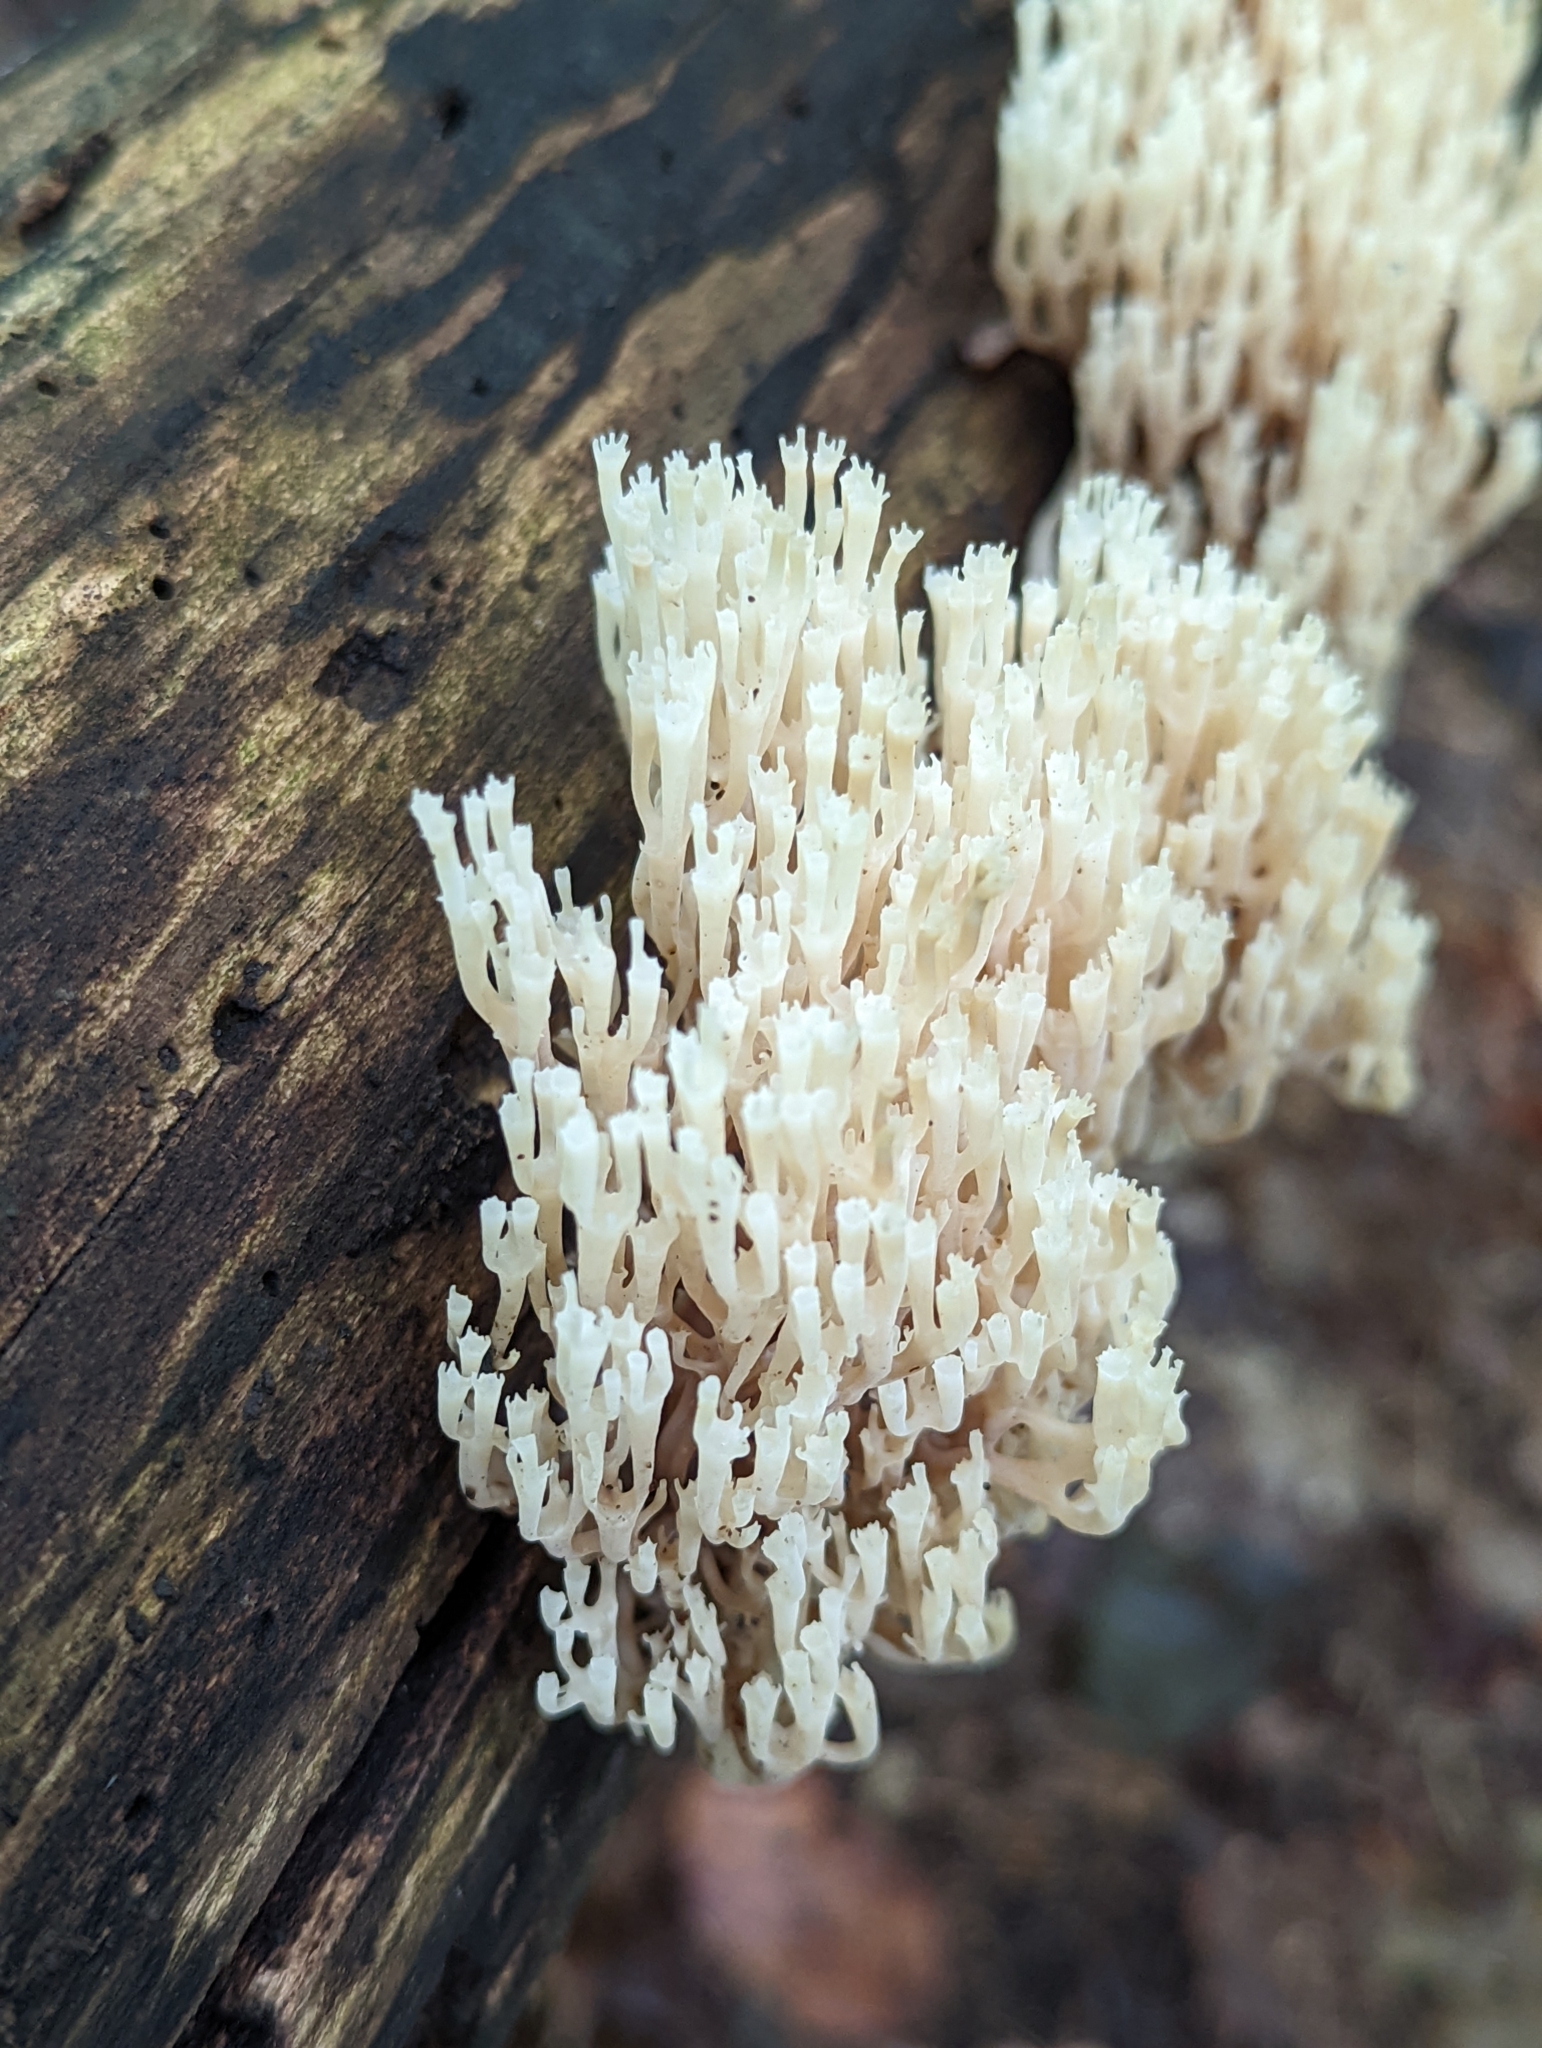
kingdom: Fungi
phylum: Basidiomycota
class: Agaricomycetes
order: Russulales
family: Auriscalpiaceae
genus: Artomyces
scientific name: Artomyces pyxidatus
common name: Crown-tipped coral fungus
